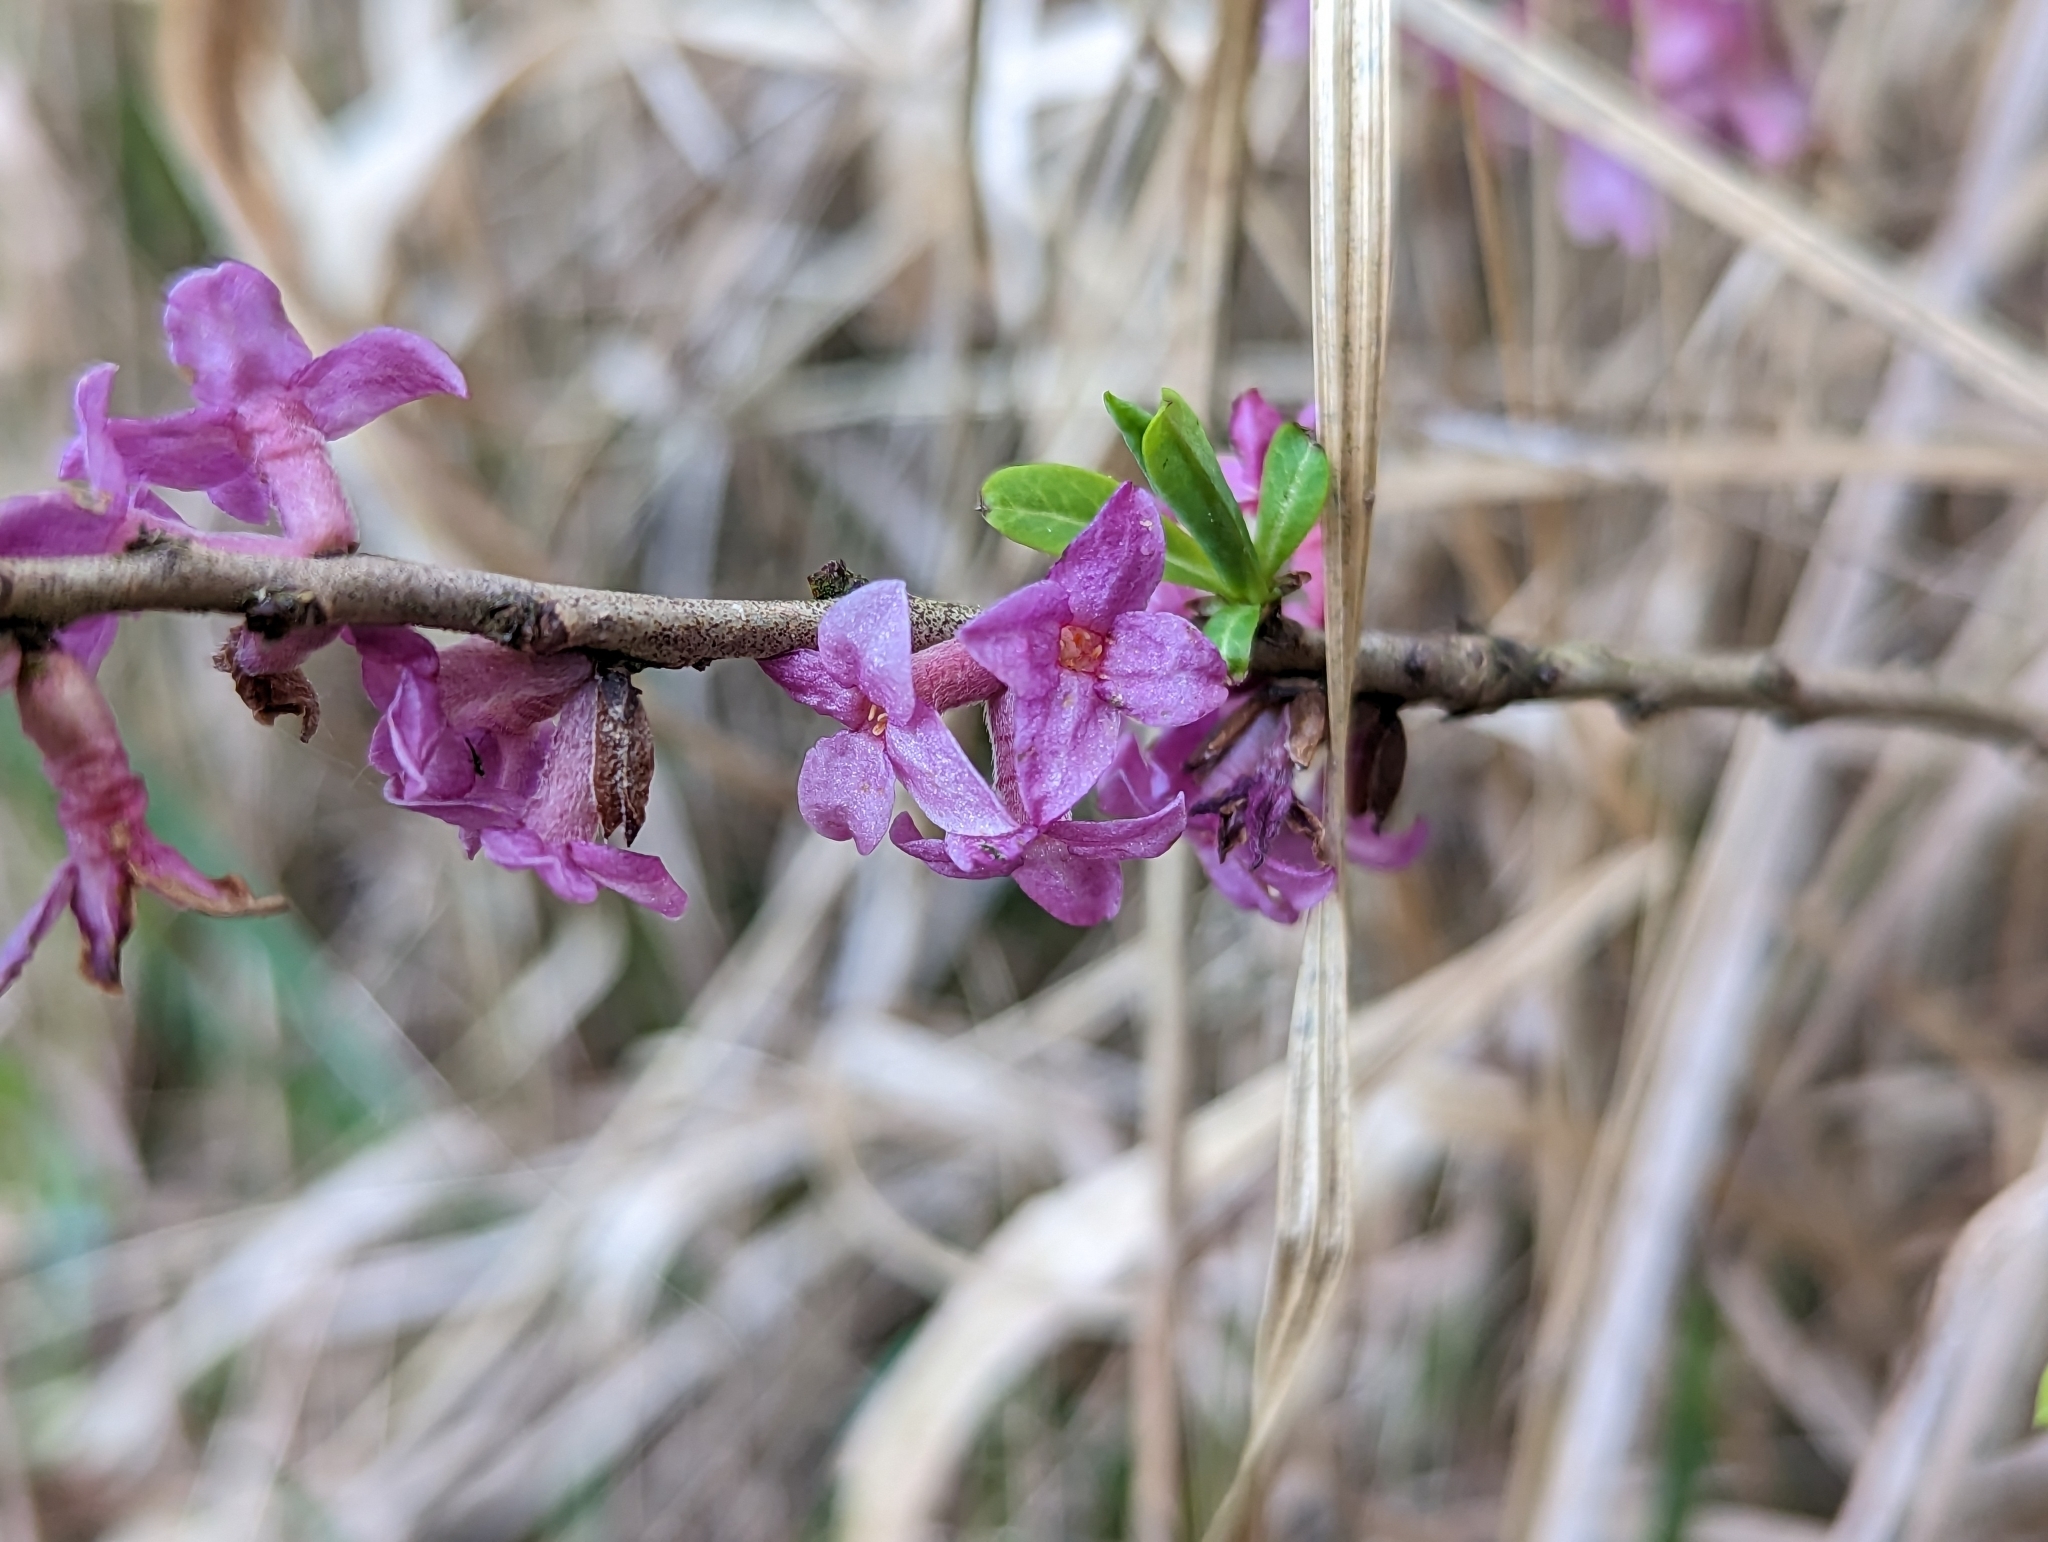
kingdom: Plantae
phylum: Tracheophyta
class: Magnoliopsida
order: Malvales
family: Thymelaeaceae
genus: Daphne
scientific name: Daphne mezereum
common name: Mezereon
